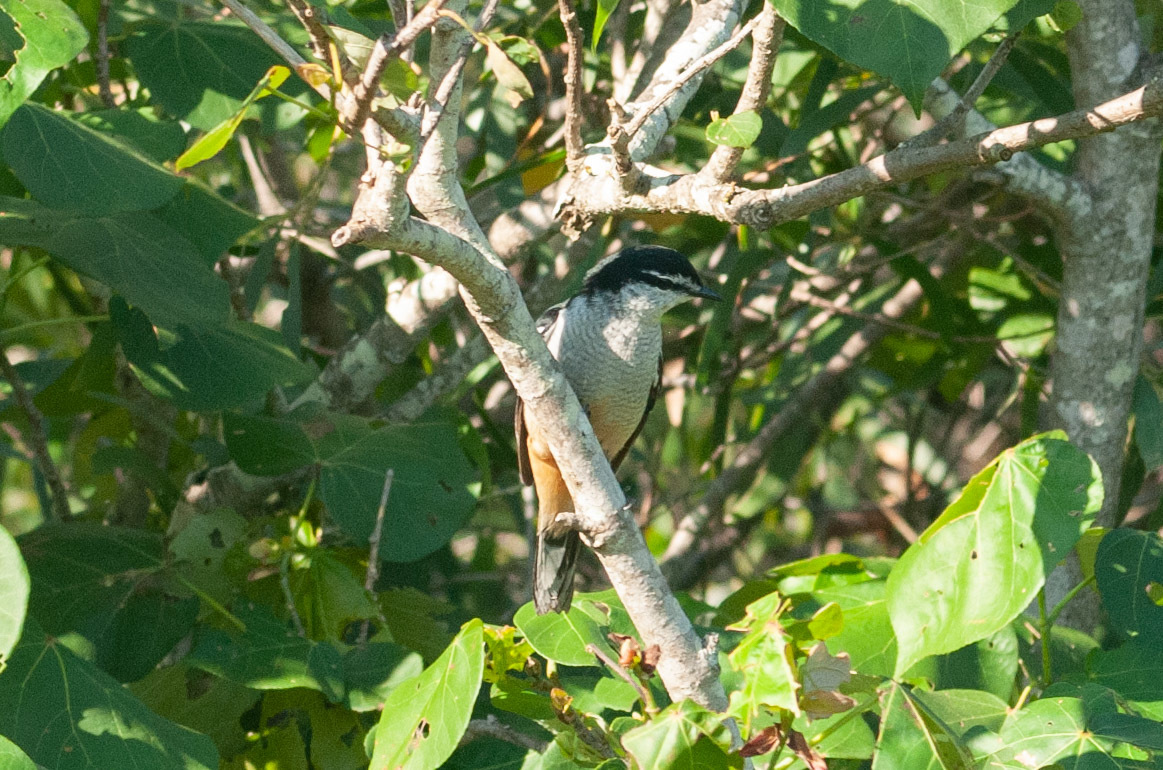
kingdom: Animalia
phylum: Chordata
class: Aves
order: Passeriformes
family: Campephagidae
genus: Lalage
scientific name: Lalage leucomela
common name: Varied triller
